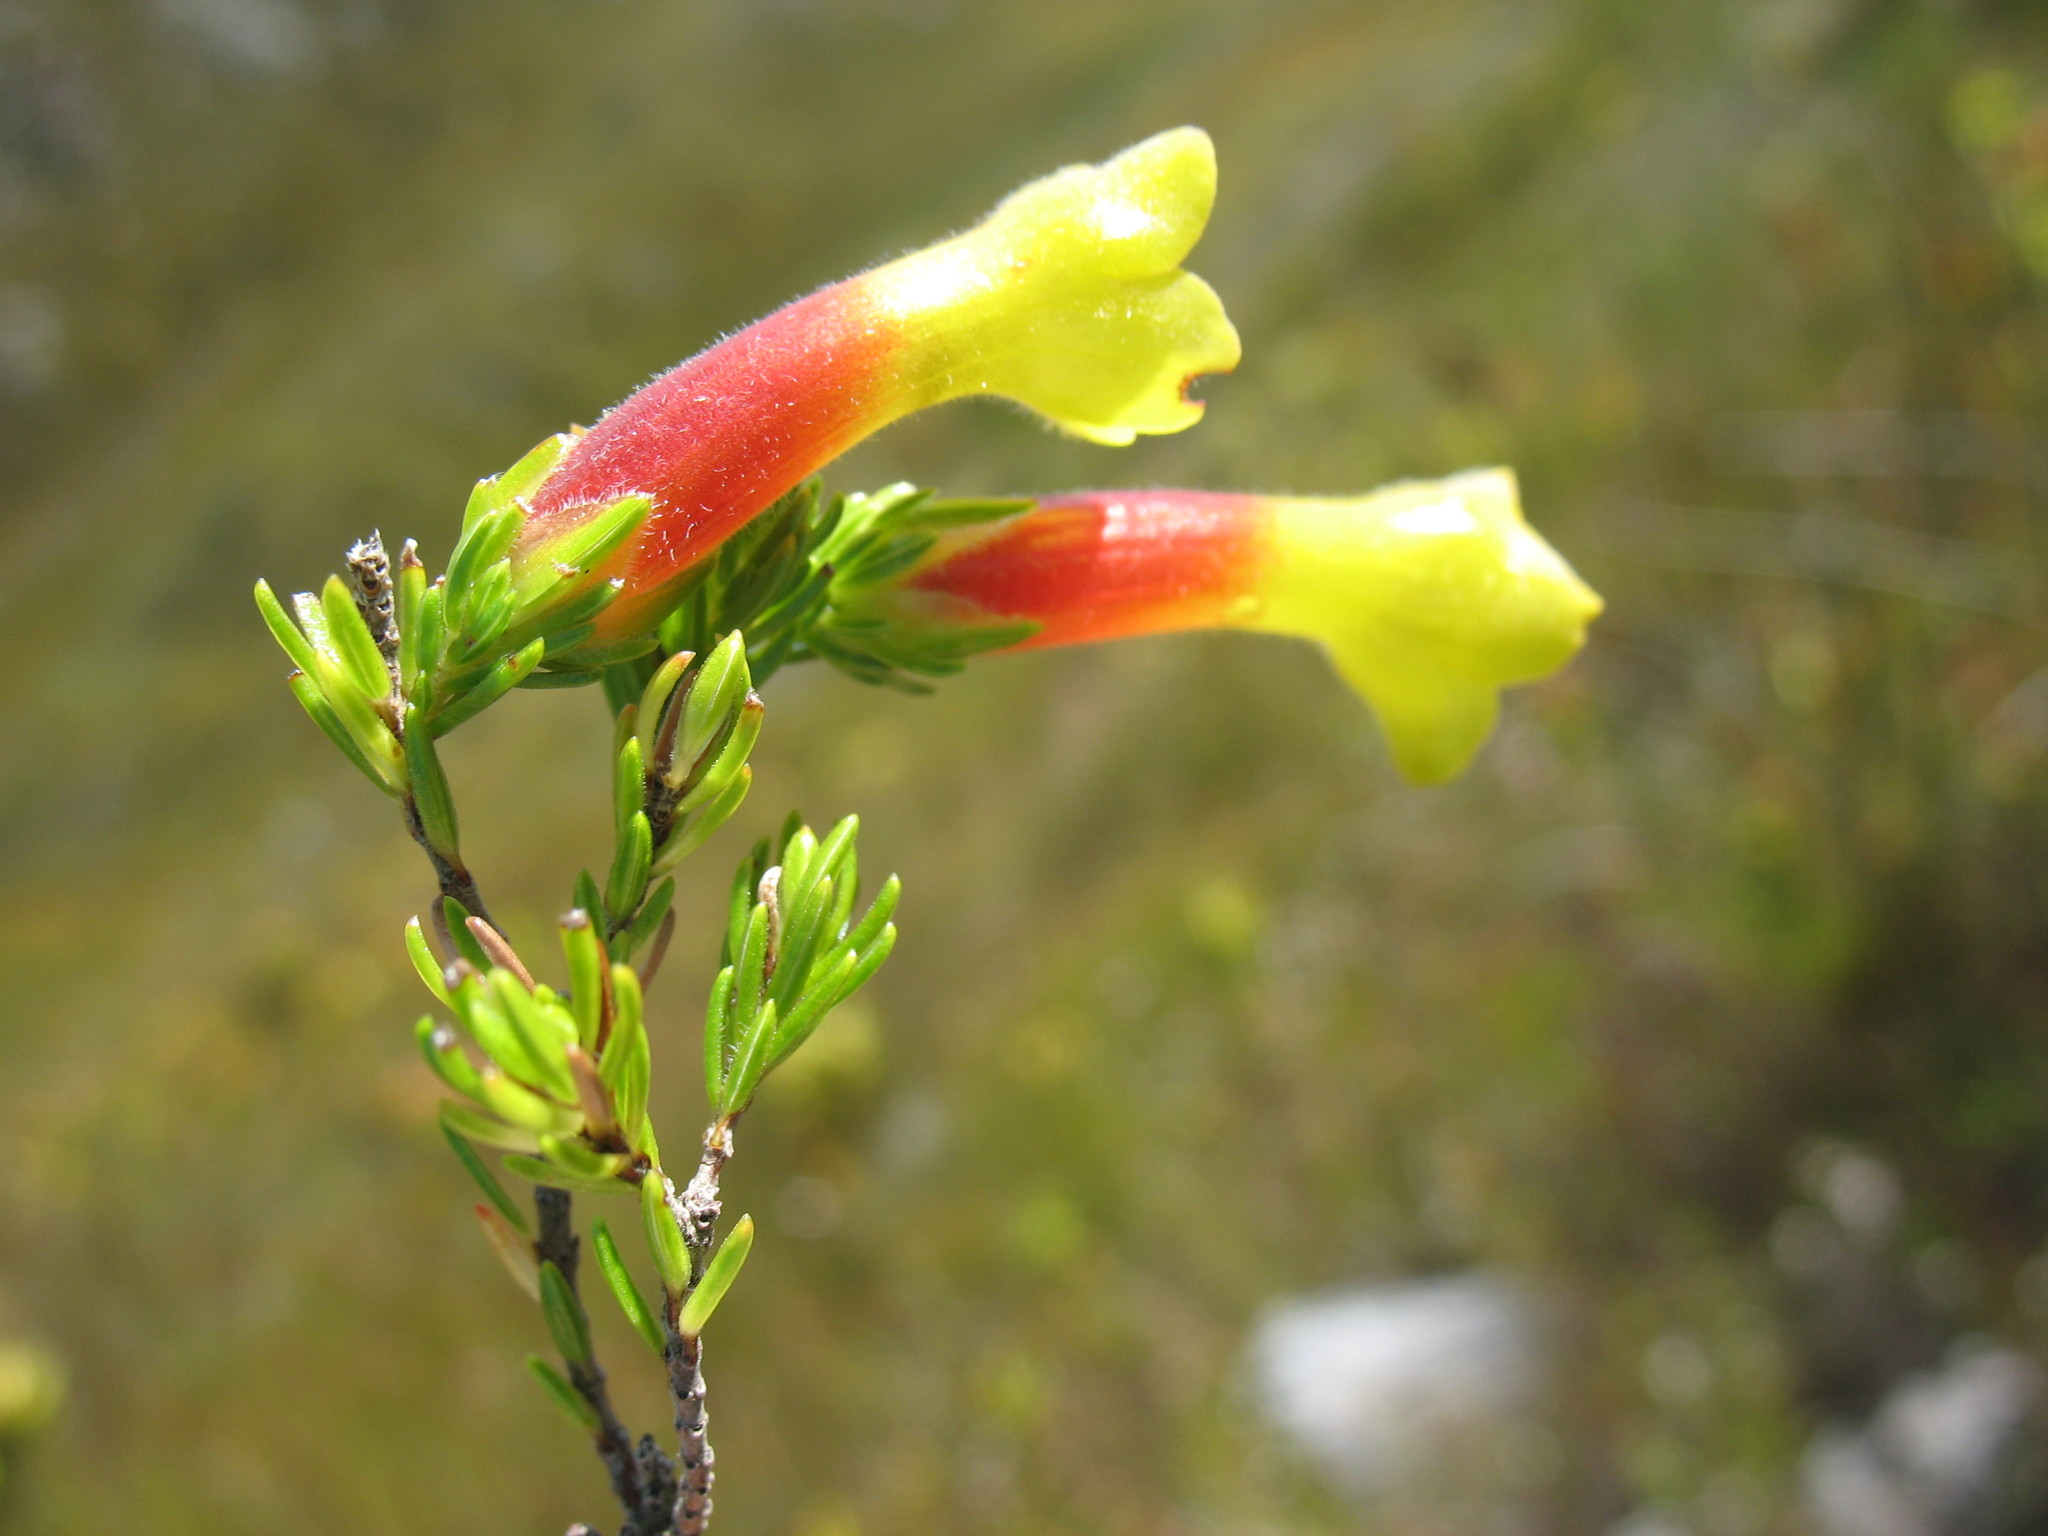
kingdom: Plantae
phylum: Tracheophyta
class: Magnoliopsida
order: Ericales
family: Ericaceae
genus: Erica
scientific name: Erica macowanii
